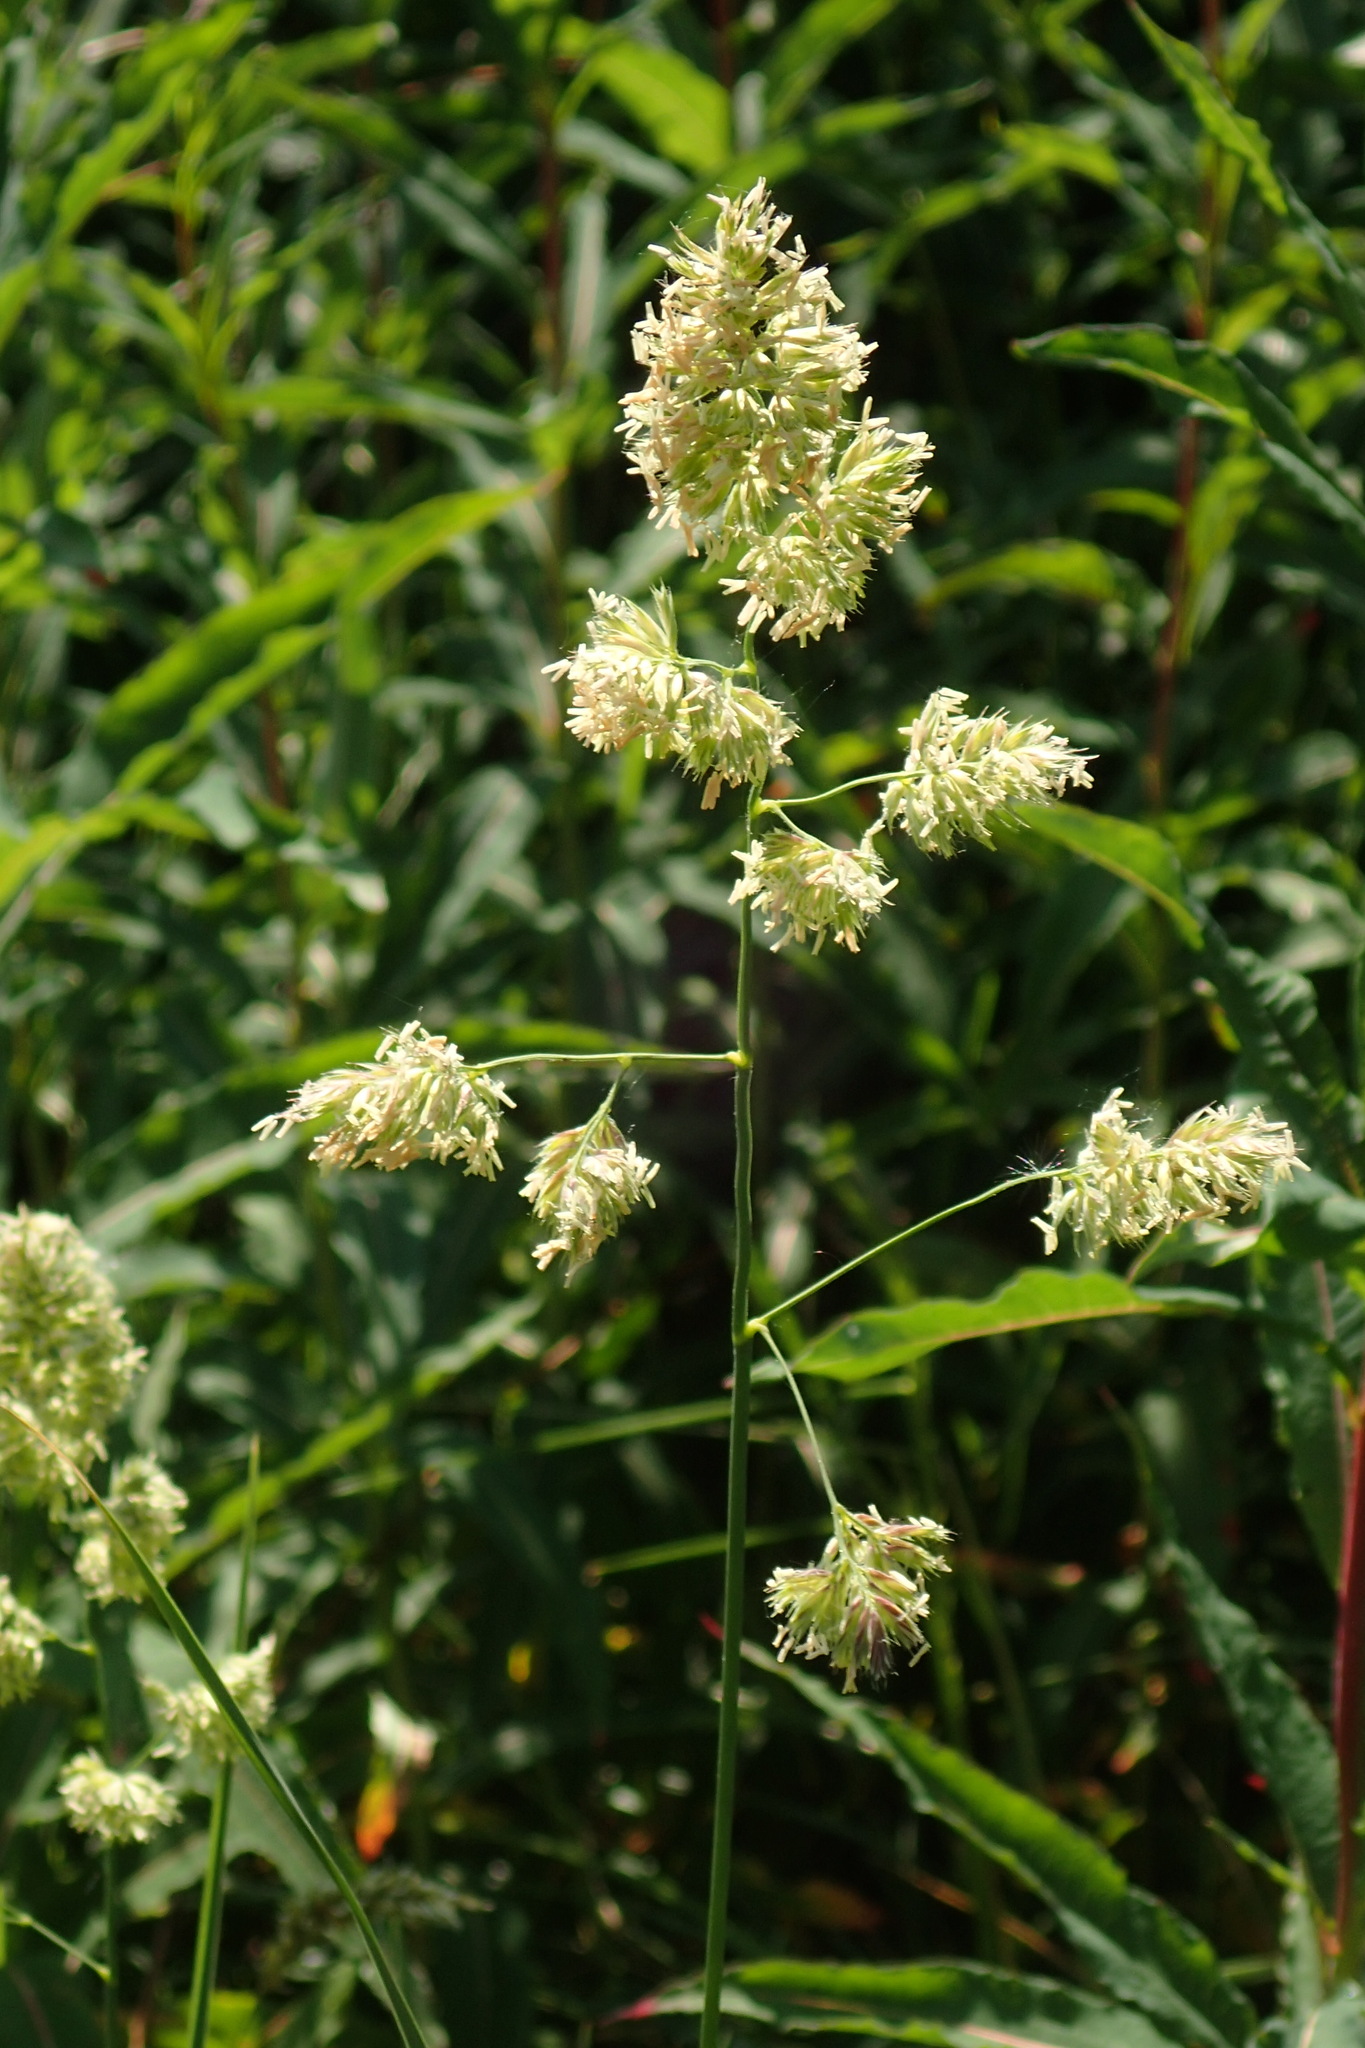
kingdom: Plantae
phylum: Tracheophyta
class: Liliopsida
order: Poales
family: Poaceae
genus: Dactylis
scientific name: Dactylis glomerata
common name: Orchardgrass
